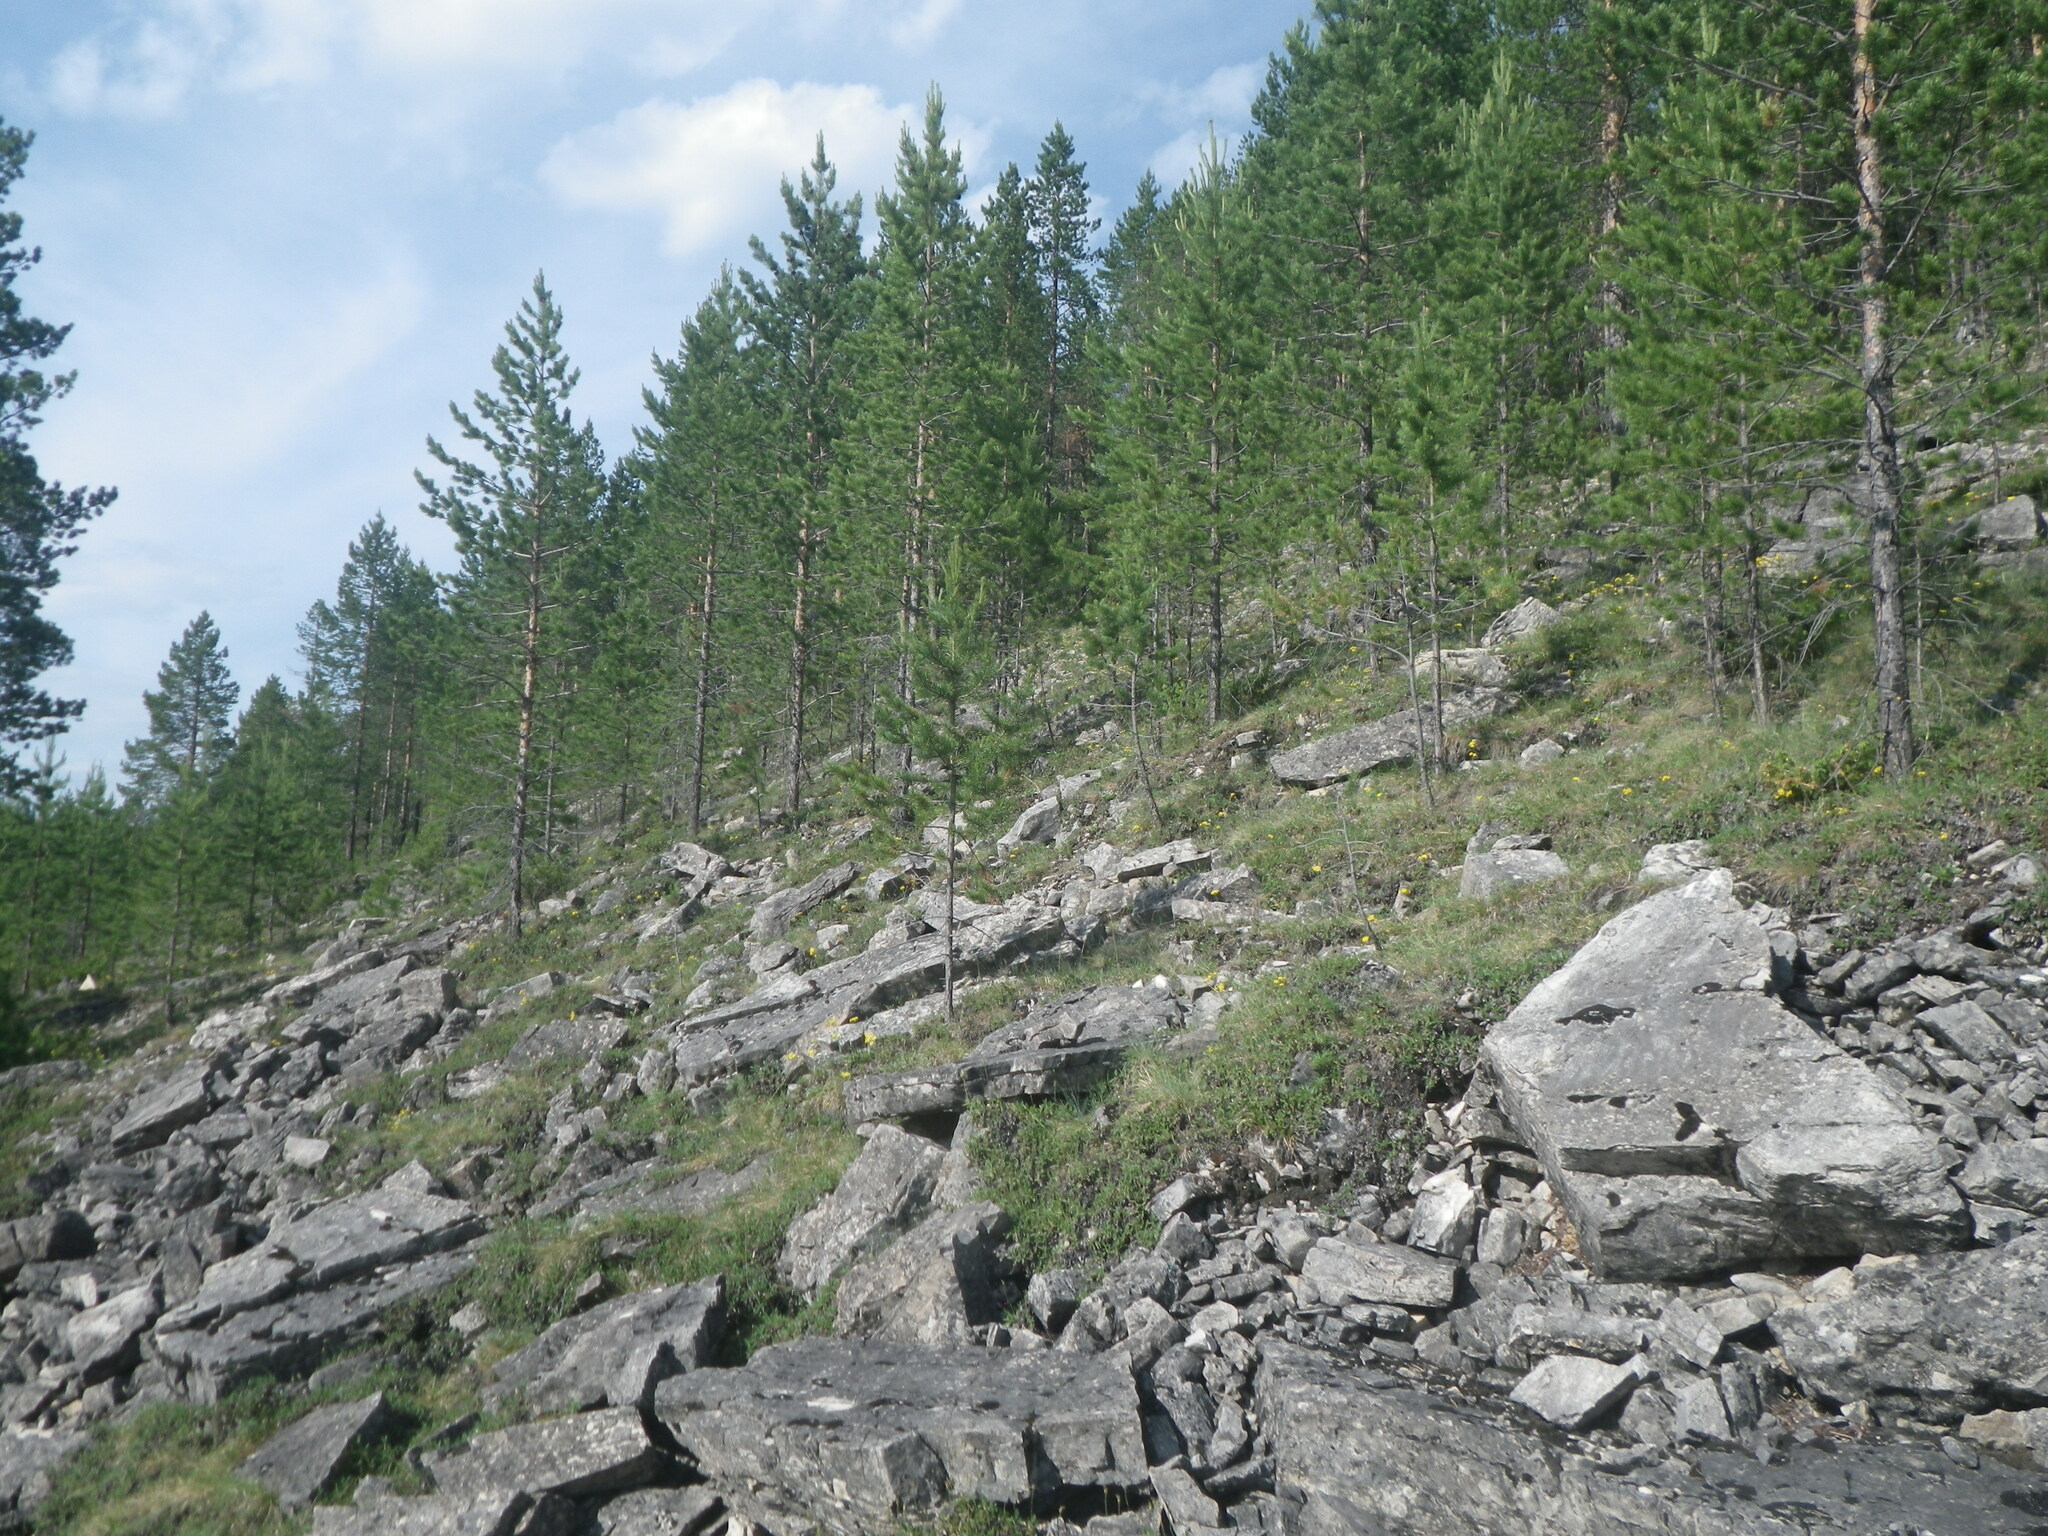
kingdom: Plantae
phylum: Tracheophyta
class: Pinopsida
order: Pinales
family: Pinaceae
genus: Pinus
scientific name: Pinus sylvestris
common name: Scots pine
